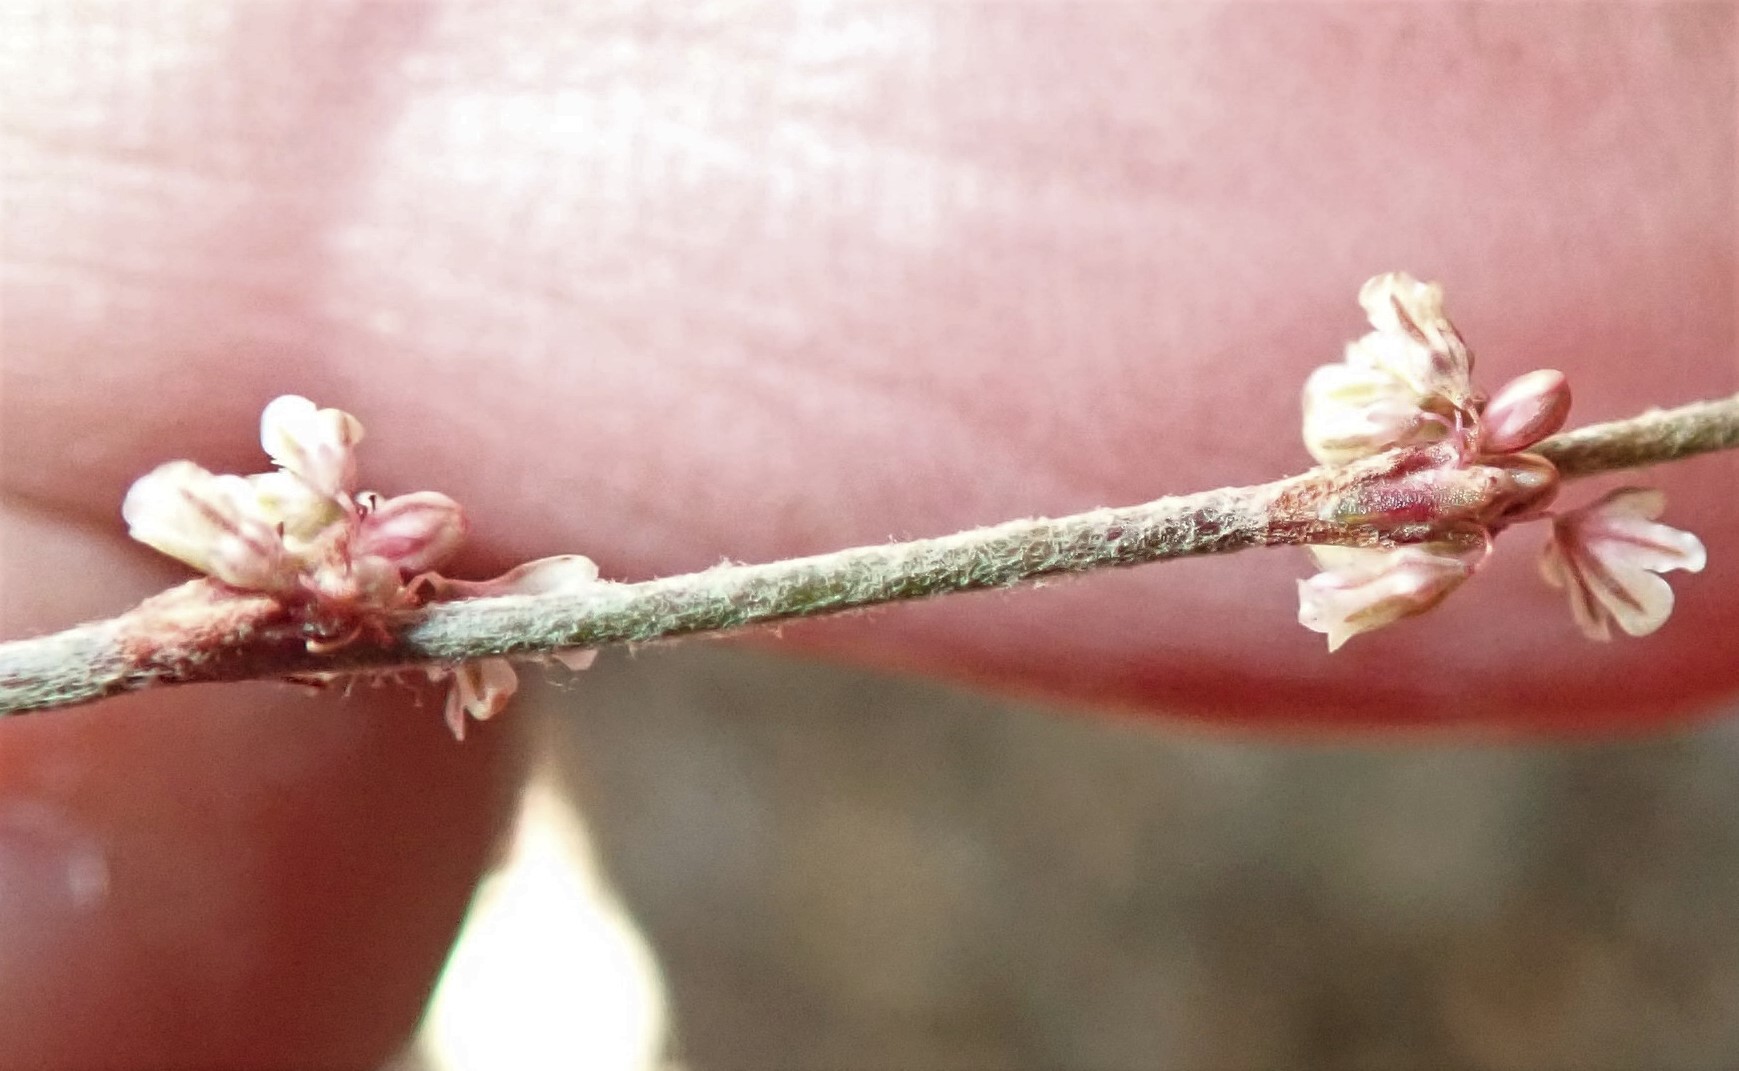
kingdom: Plantae
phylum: Tracheophyta
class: Magnoliopsida
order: Caryophyllales
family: Polygonaceae
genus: Eriogonum
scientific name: Eriogonum gracile
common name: Slender woolly buckwheat
